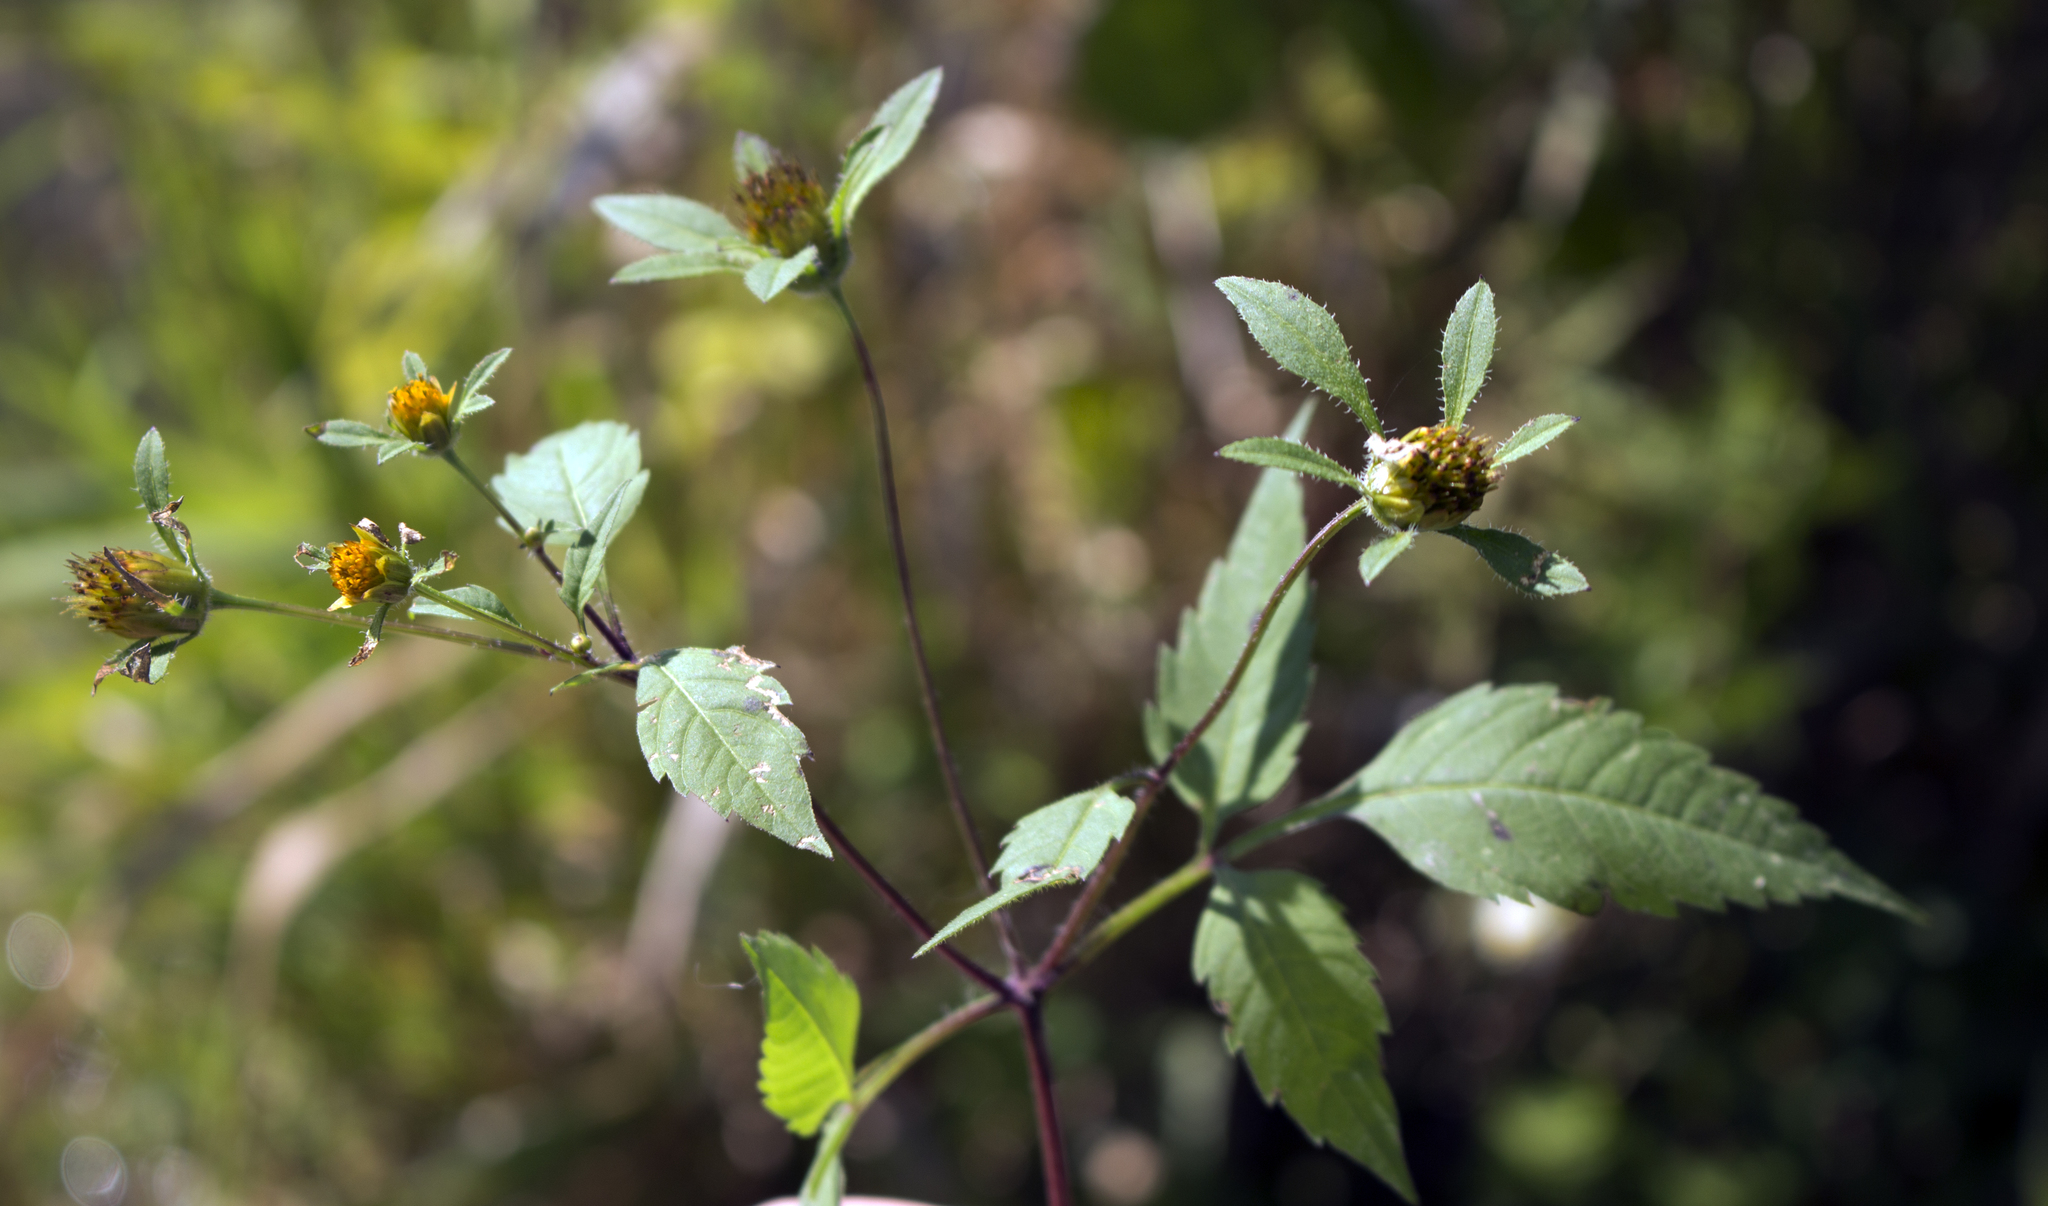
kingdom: Plantae
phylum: Tracheophyta
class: Magnoliopsida
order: Asterales
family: Asteraceae
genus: Bidens
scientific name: Bidens frondosa
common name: Beggarticks
